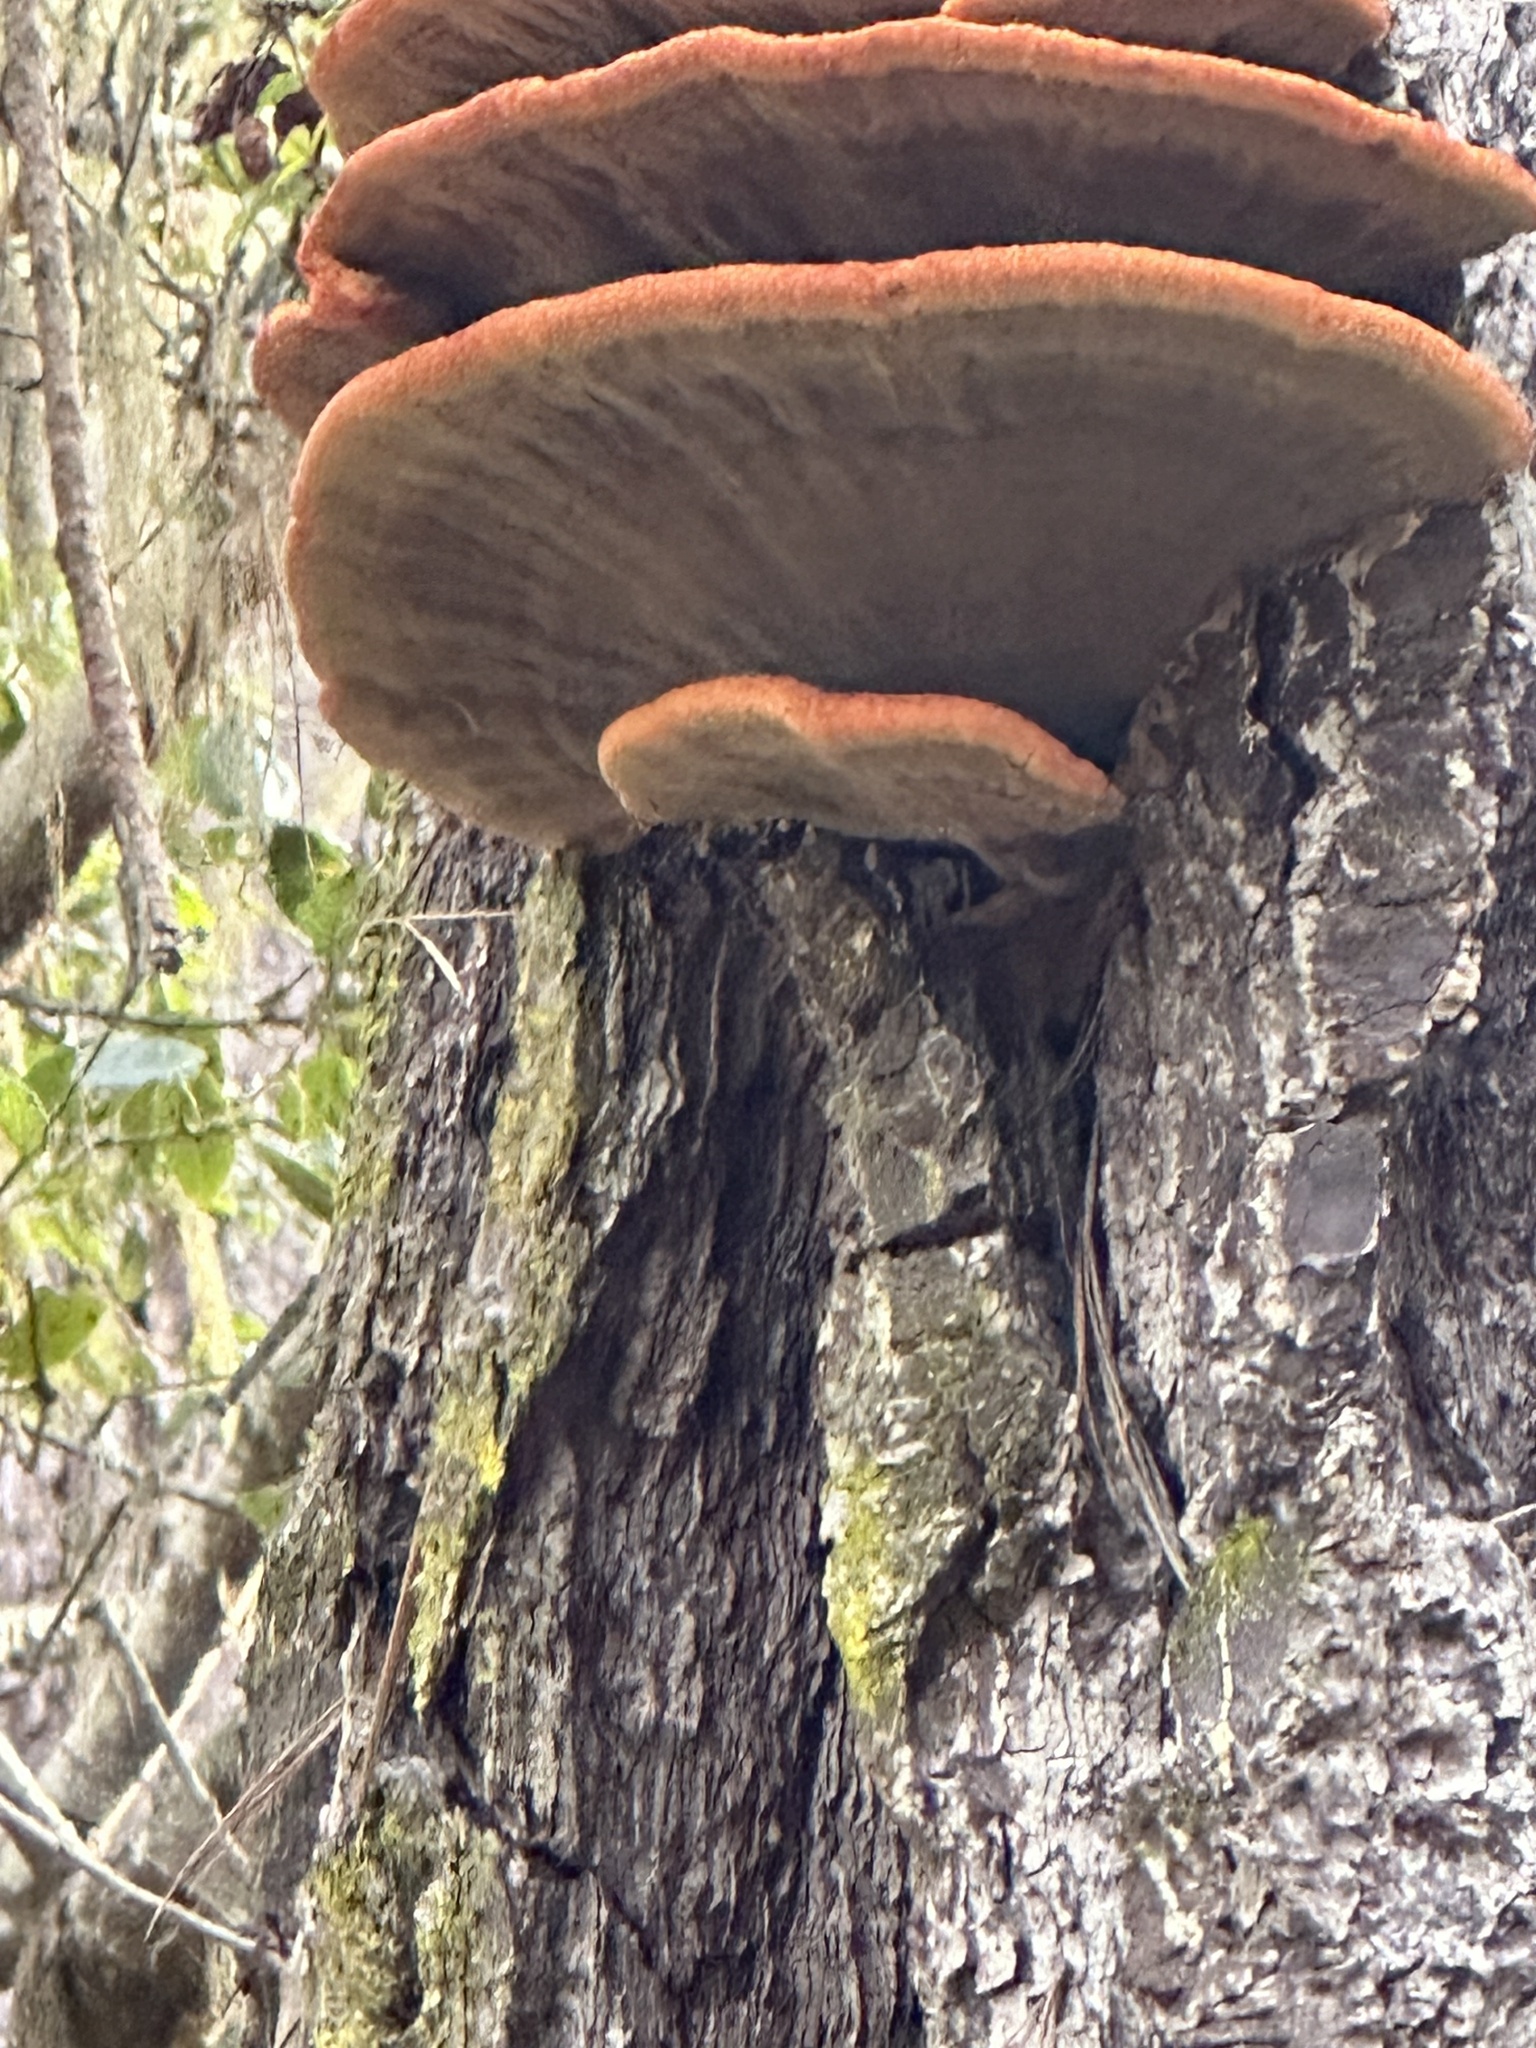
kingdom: Fungi
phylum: Basidiomycota
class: Agaricomycetes
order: Polyporales
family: Laetiporaceae
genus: Phaeolus
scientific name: Phaeolus schweinitzii
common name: Dyer's mazegill
